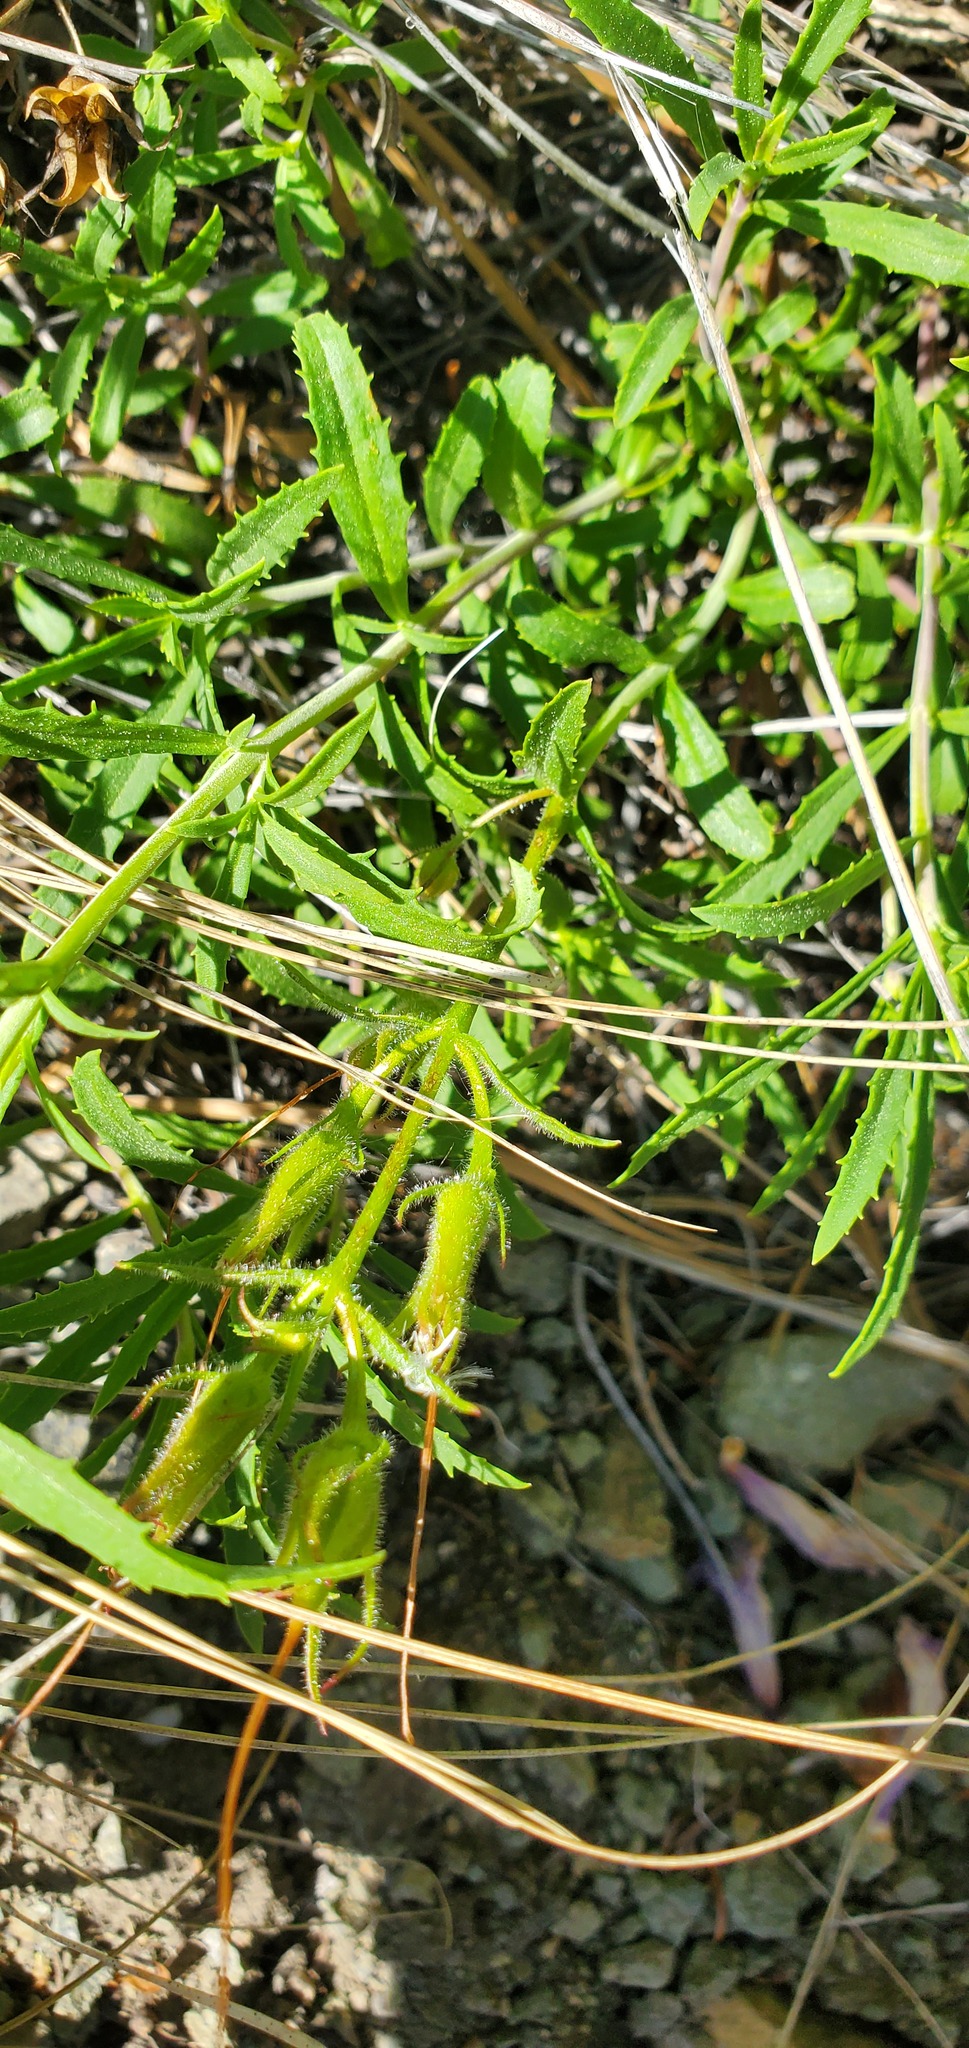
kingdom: Plantae
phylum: Tracheophyta
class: Magnoliopsida
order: Lamiales
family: Plantaginaceae
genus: Penstemon
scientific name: Penstemon fruticosus
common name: Bush penstemon
